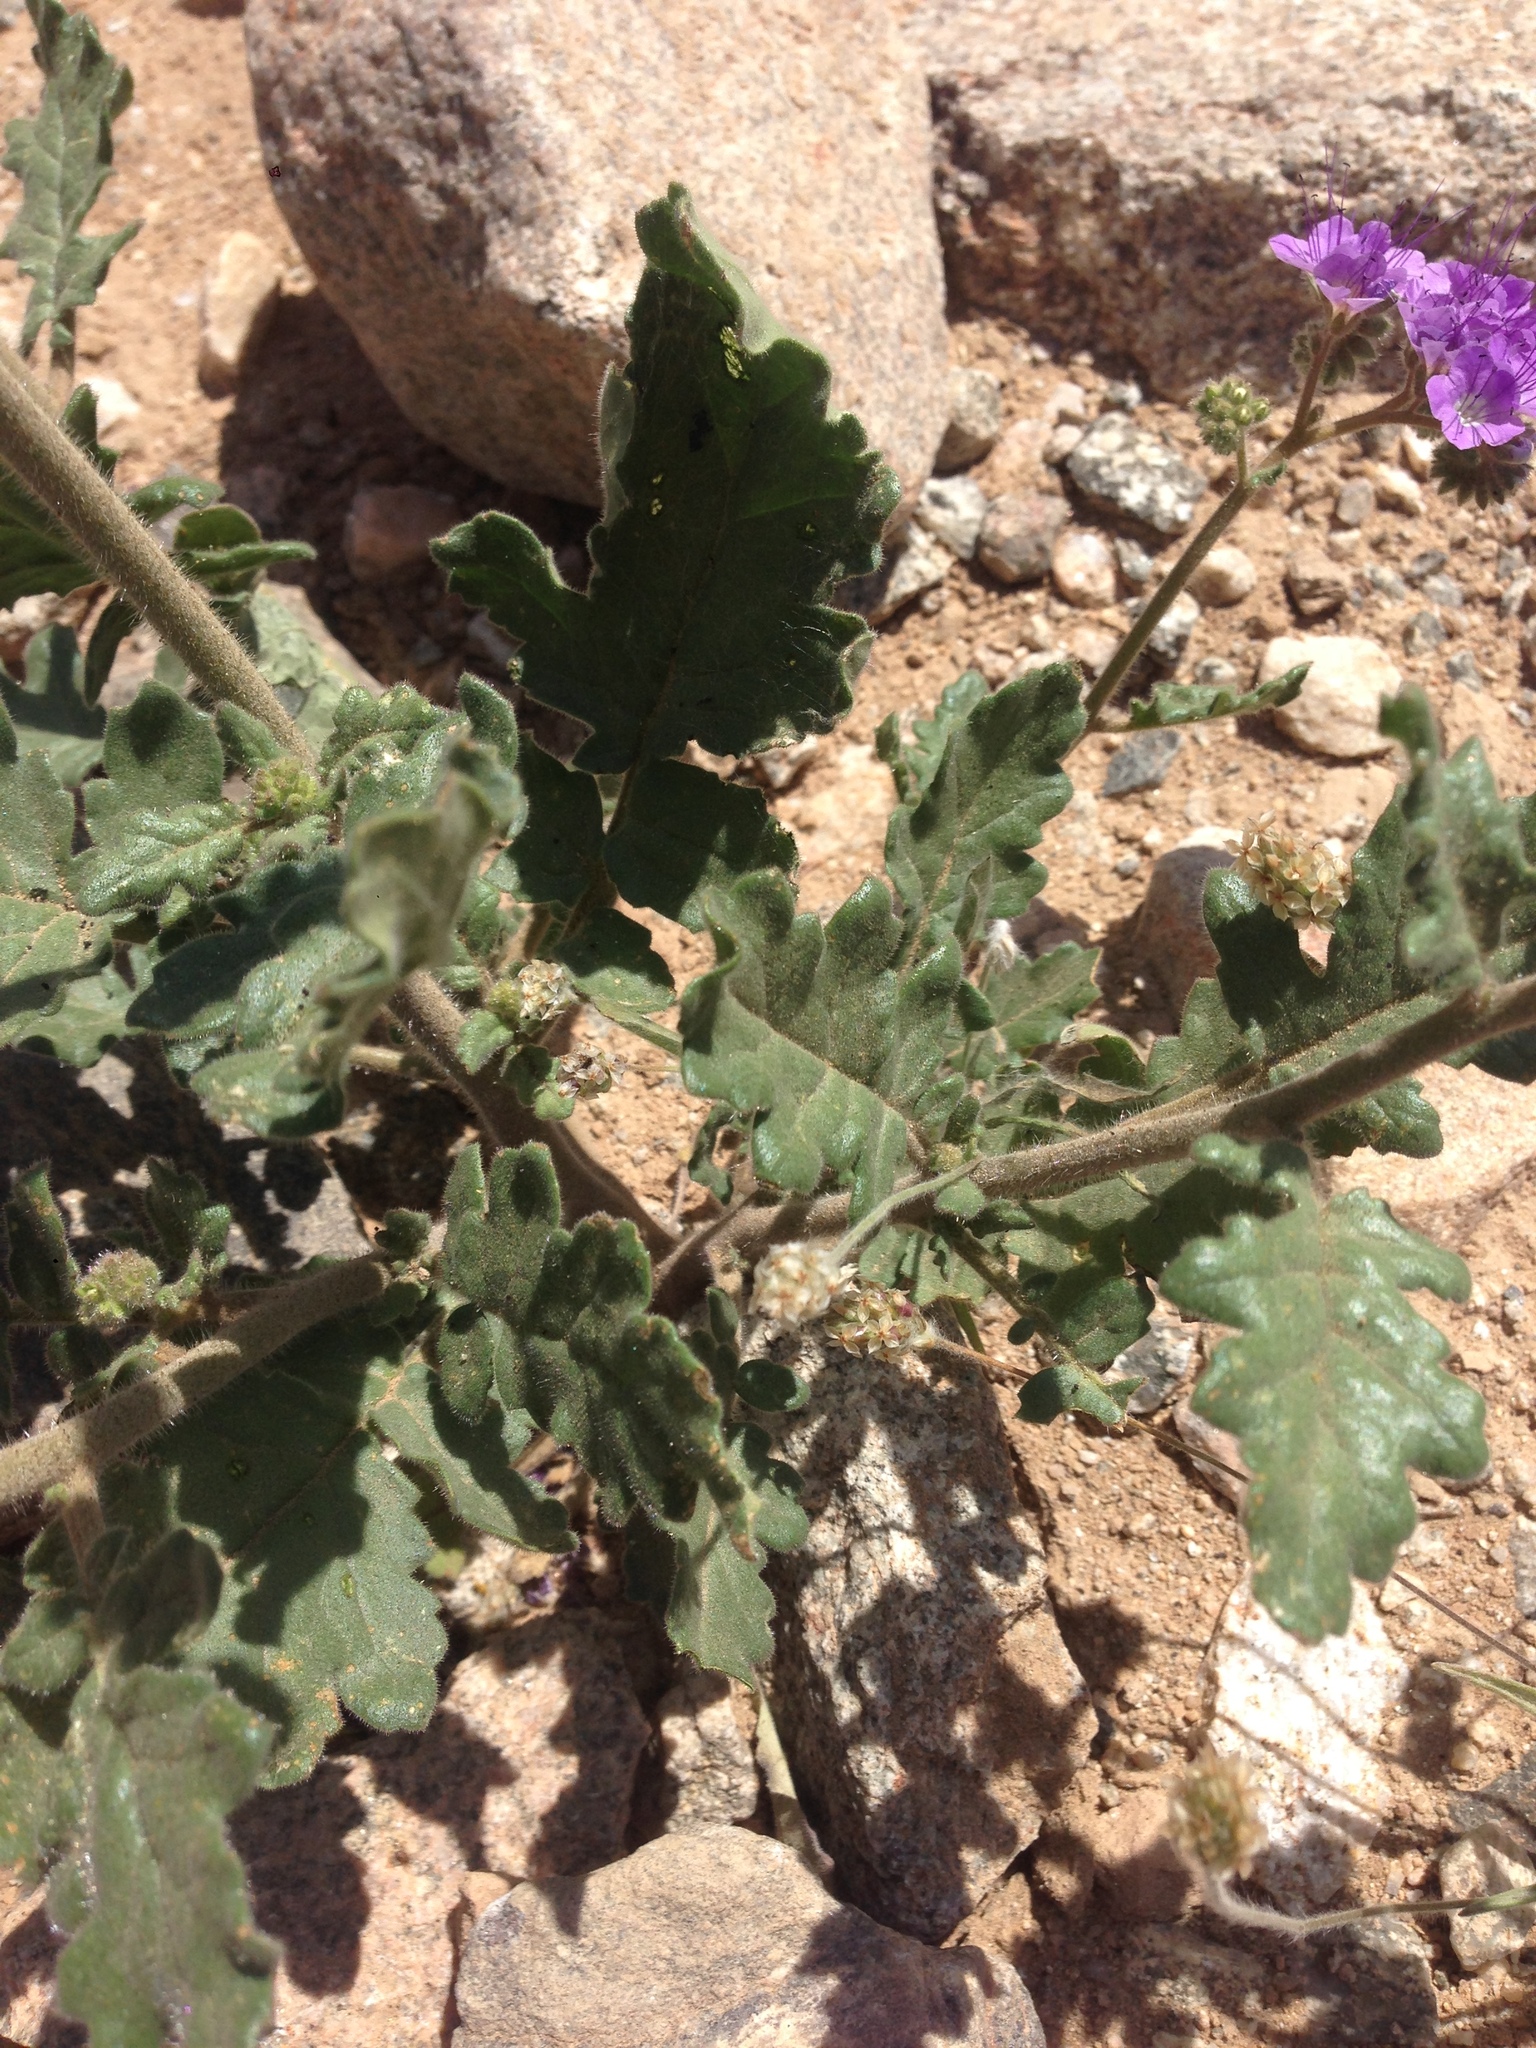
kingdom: Plantae
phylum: Tracheophyta
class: Magnoliopsida
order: Boraginales
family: Hydrophyllaceae
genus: Phacelia
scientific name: Phacelia crenulata
